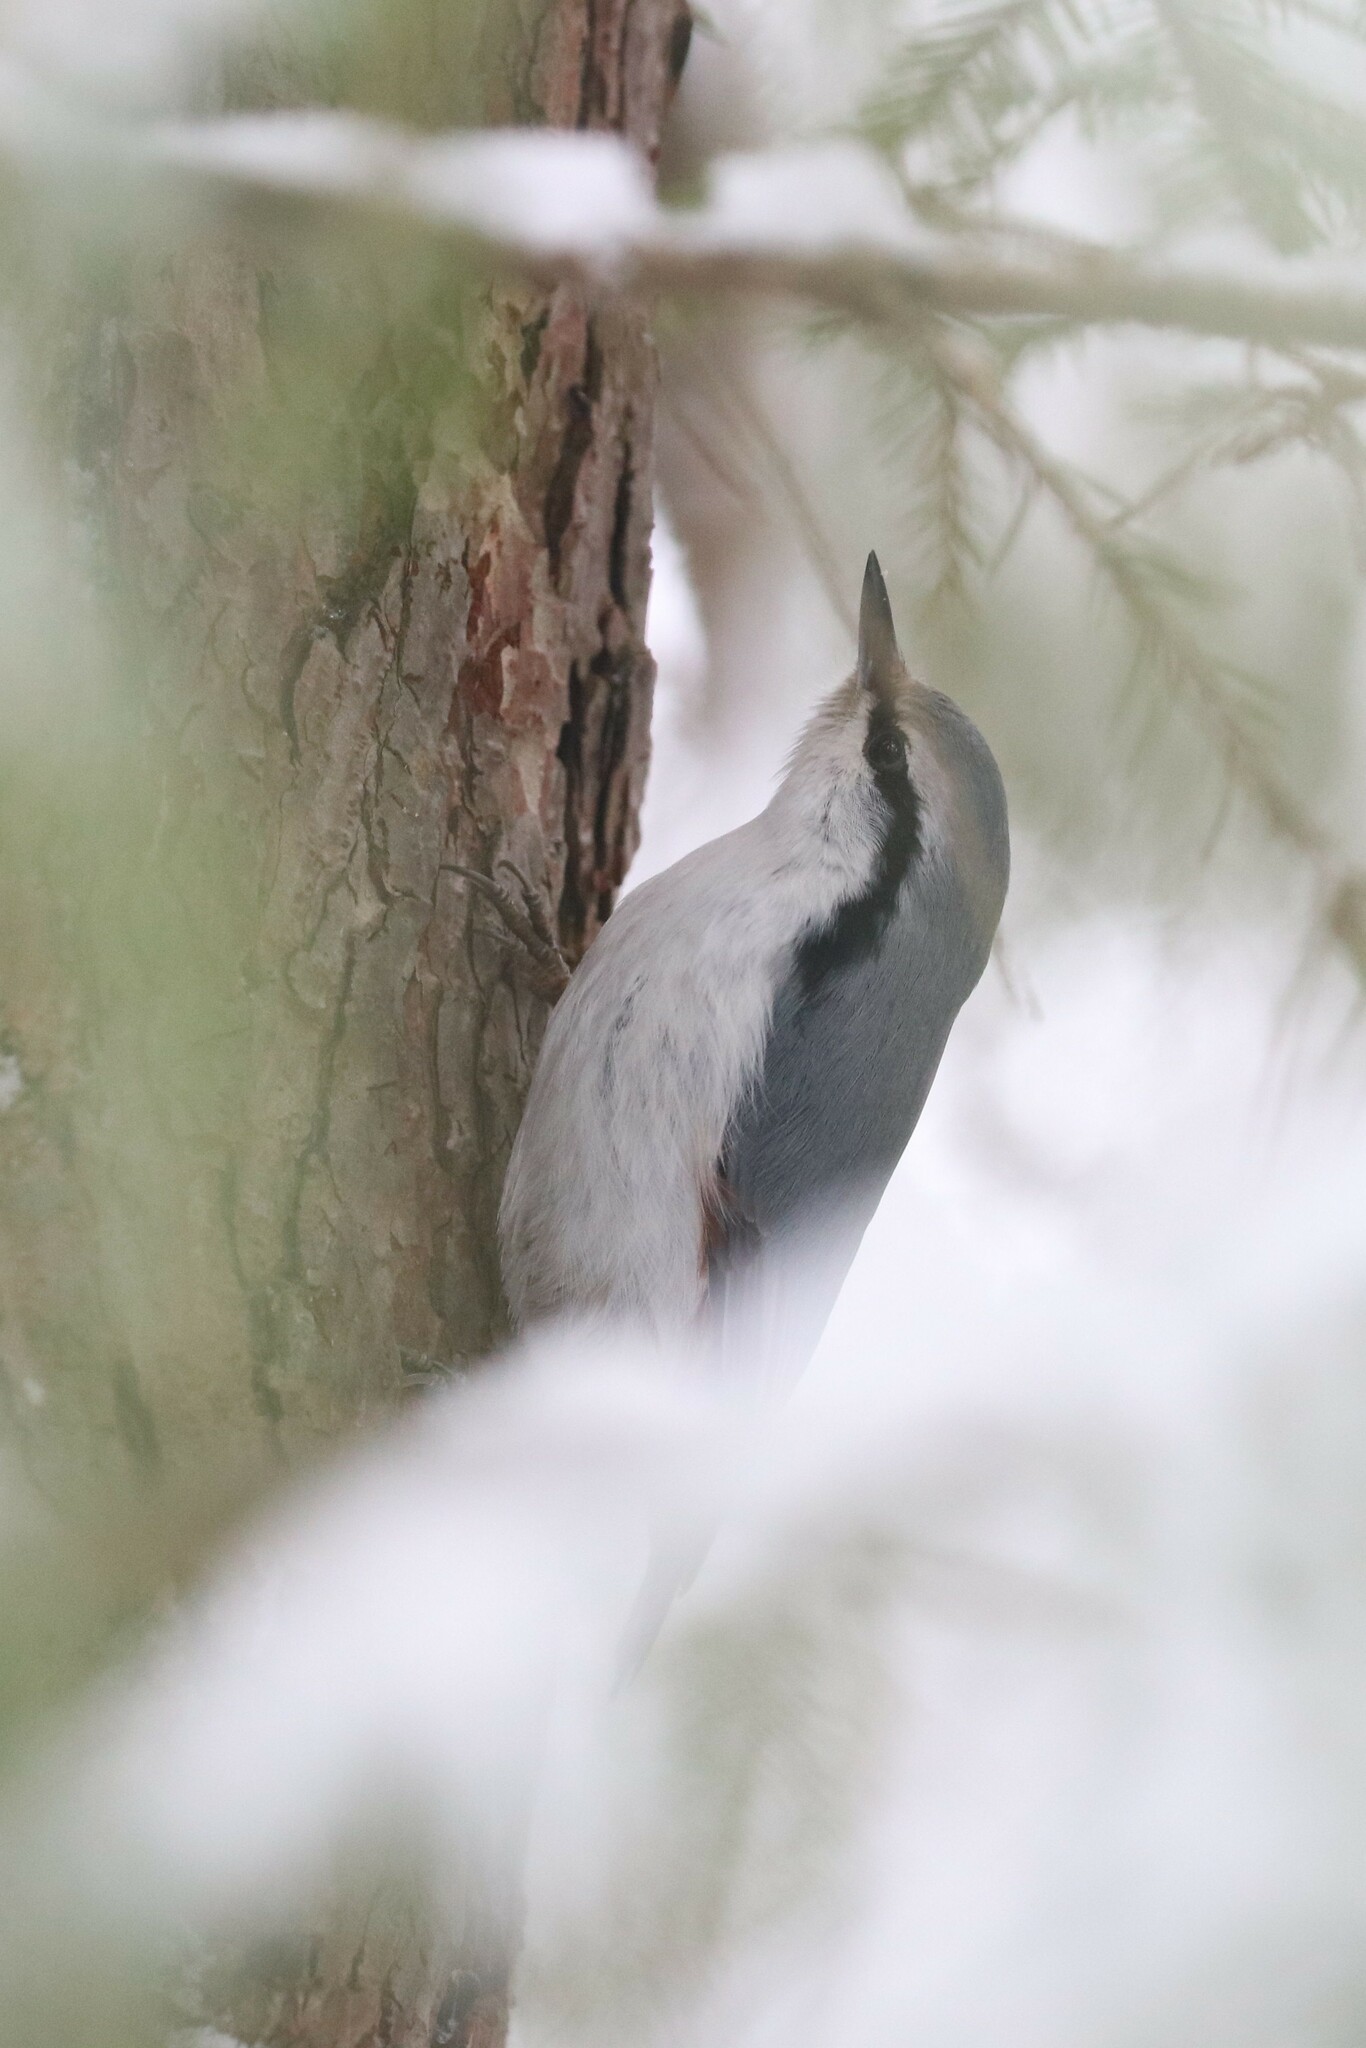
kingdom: Animalia
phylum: Chordata
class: Aves
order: Passeriformes
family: Sittidae
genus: Sitta
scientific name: Sitta europaea
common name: Eurasian nuthatch
